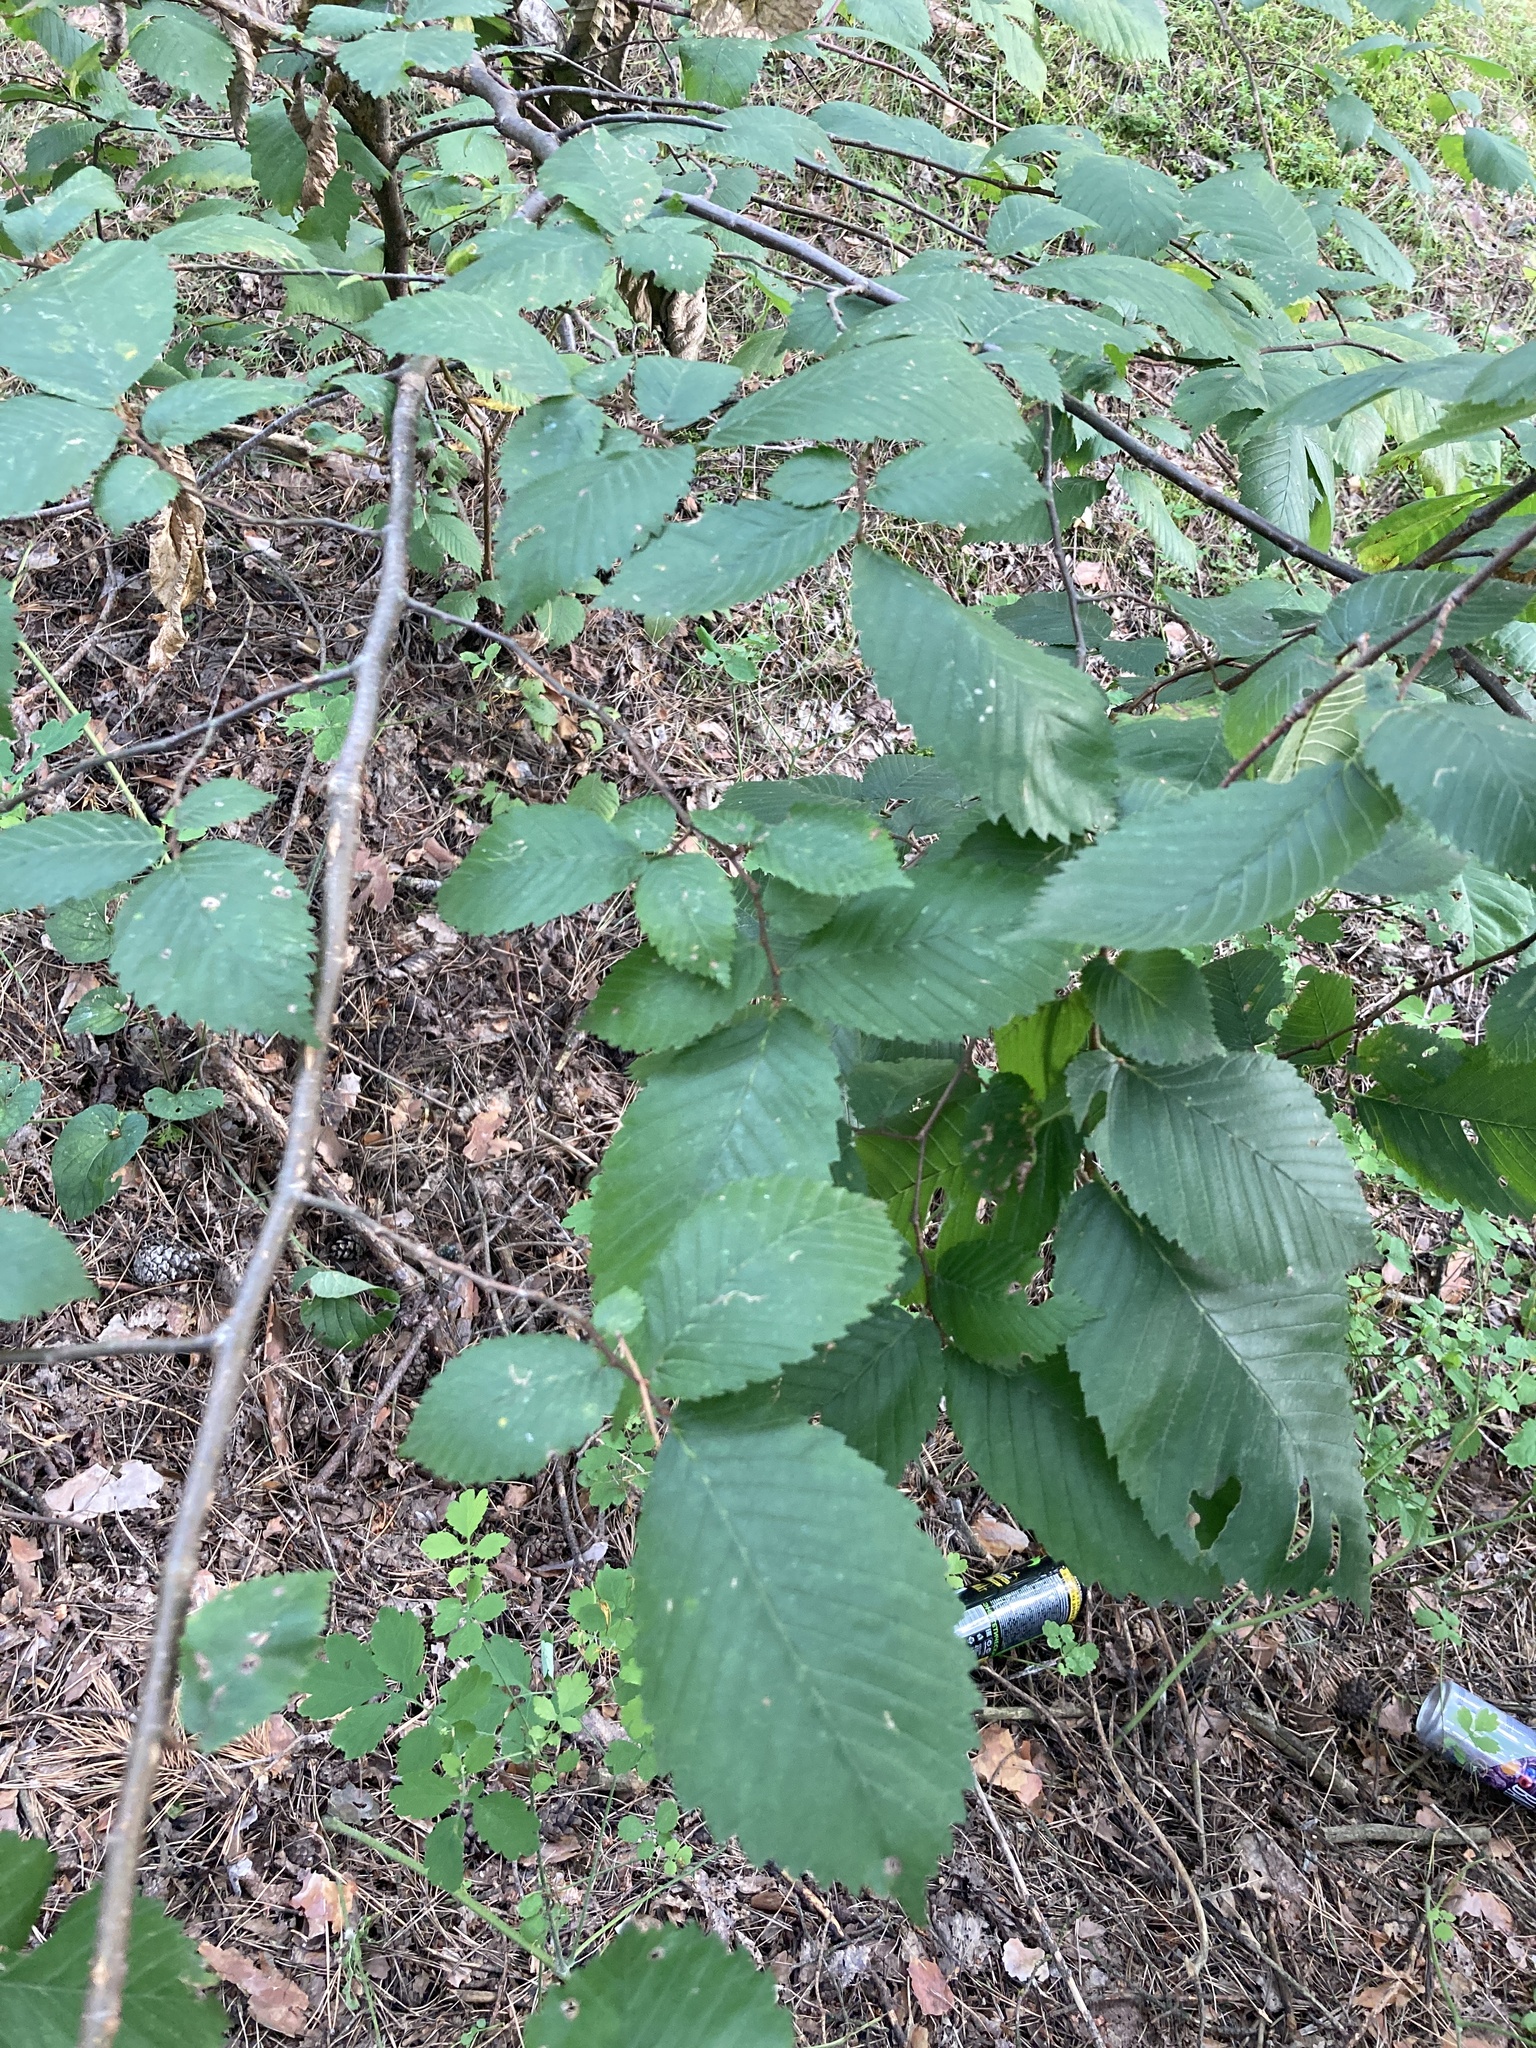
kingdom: Plantae
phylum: Tracheophyta
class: Magnoliopsida
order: Rosales
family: Ulmaceae
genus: Ulmus
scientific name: Ulmus laevis
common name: European white-elm
